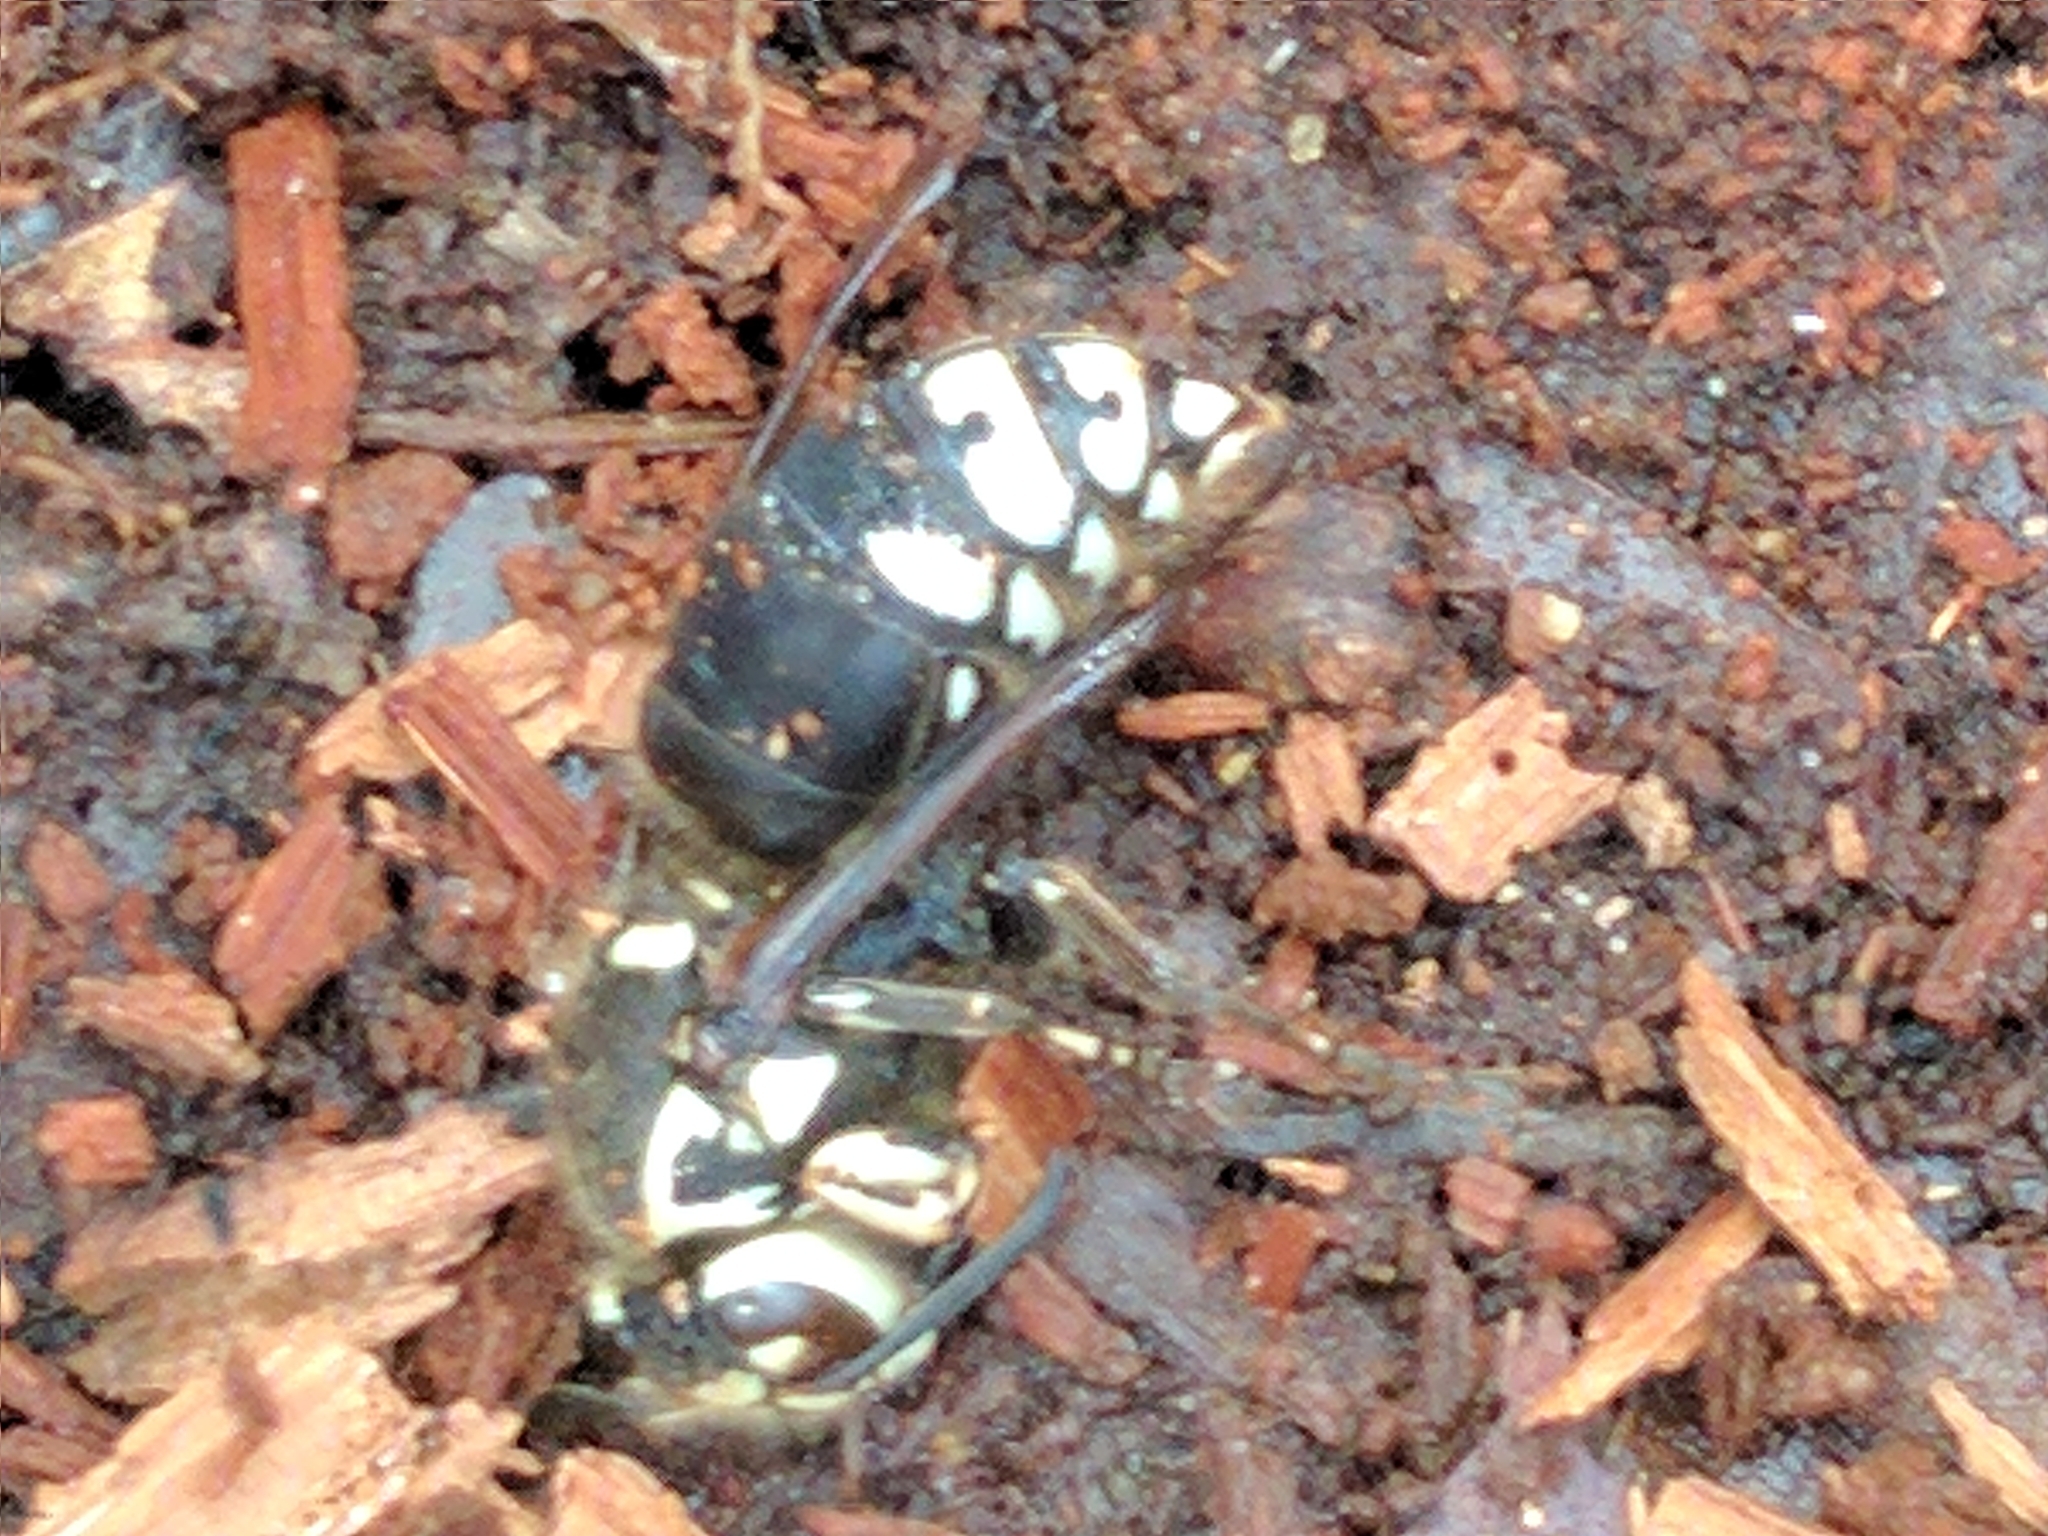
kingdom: Animalia
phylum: Arthropoda
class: Insecta
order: Hymenoptera
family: Vespidae
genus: Dolichovespula
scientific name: Dolichovespula maculata
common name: Bald-faced hornet
